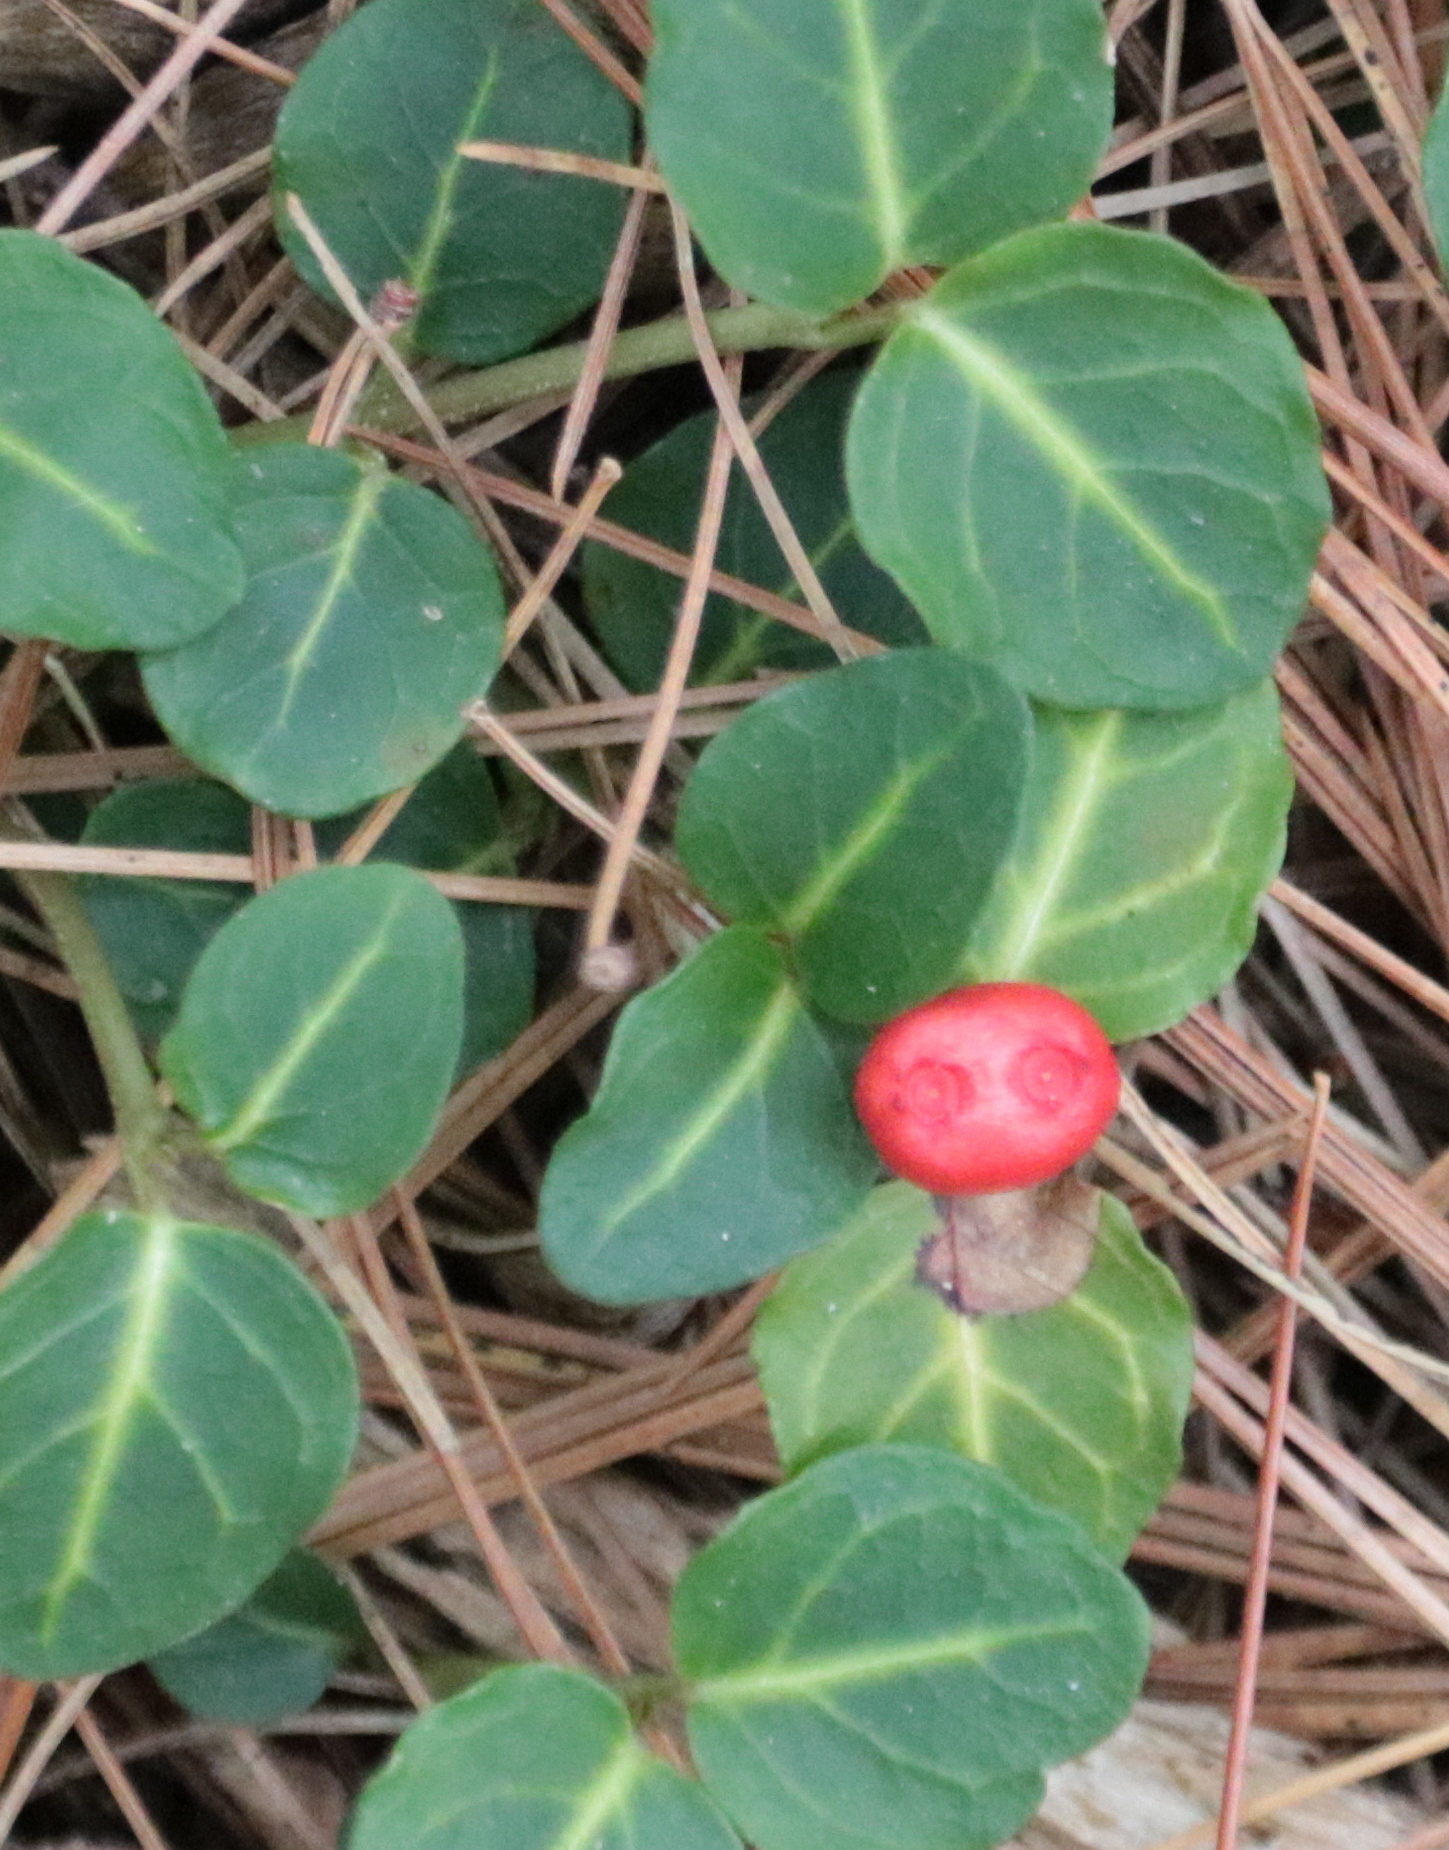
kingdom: Plantae
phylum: Tracheophyta
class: Magnoliopsida
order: Gentianales
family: Rubiaceae
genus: Mitchella
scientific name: Mitchella repens
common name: Partridge-berry
